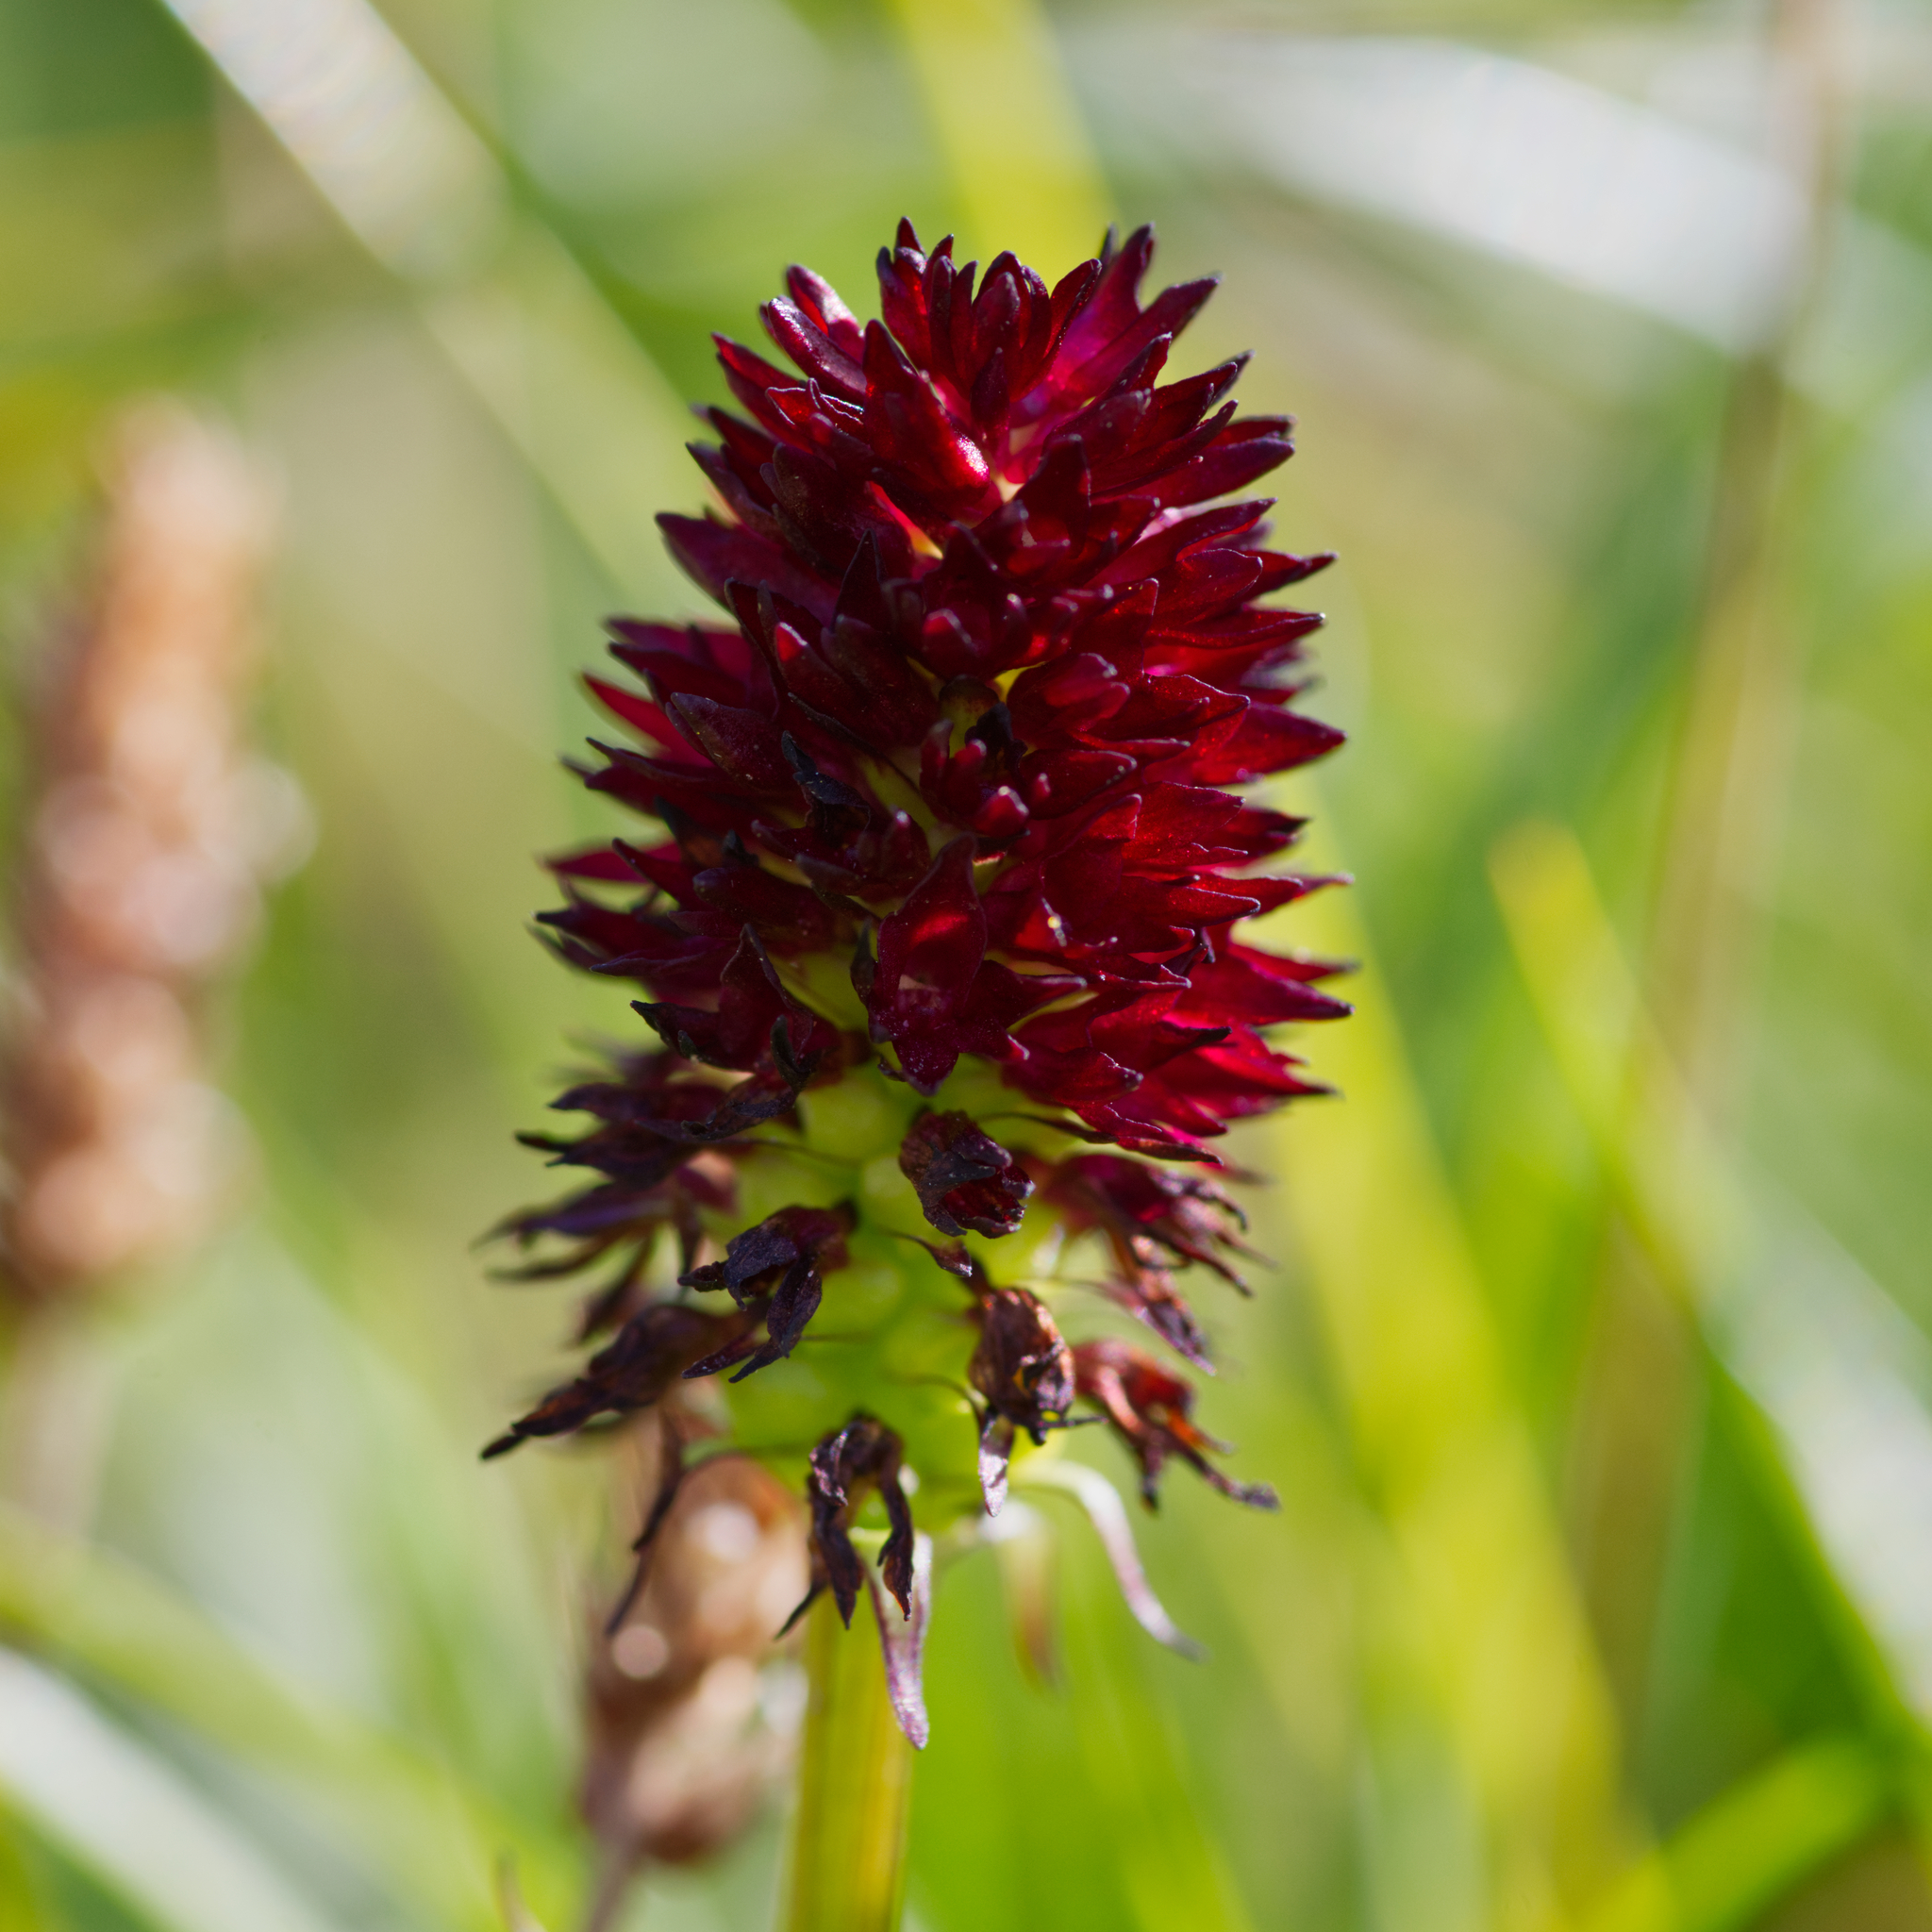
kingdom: Plantae
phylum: Tracheophyta
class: Liliopsida
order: Asparagales
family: Orchidaceae
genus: Gymnadenia
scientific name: Gymnadenia rhellicani
